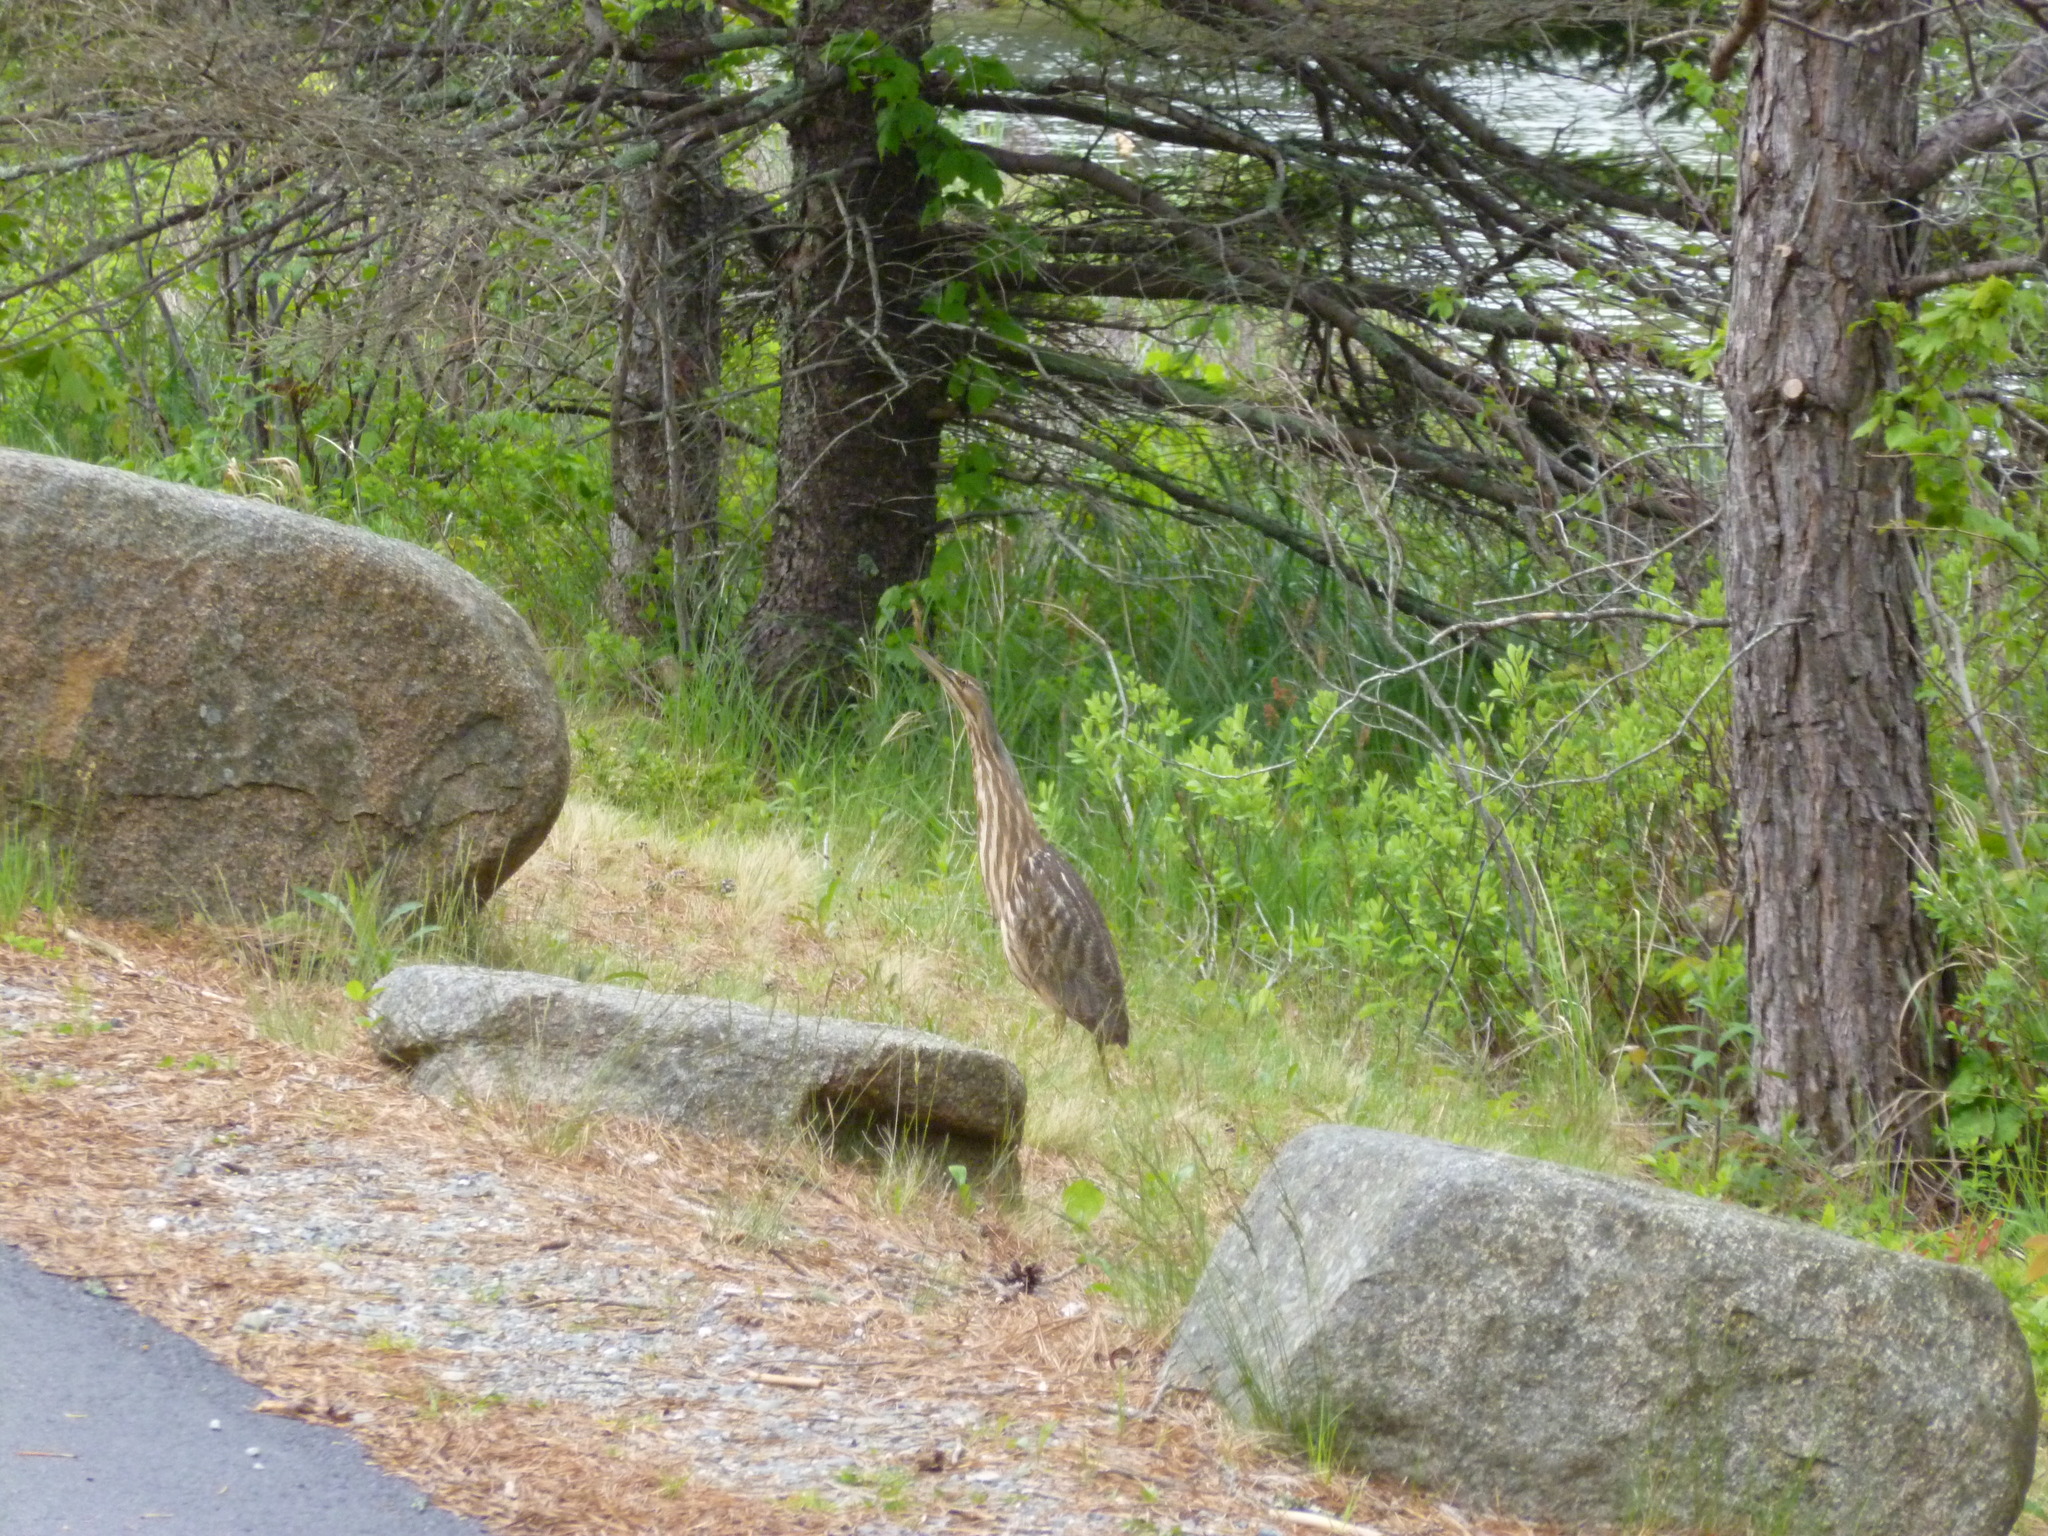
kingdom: Animalia
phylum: Chordata
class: Aves
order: Pelecaniformes
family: Ardeidae
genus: Botaurus
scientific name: Botaurus lentiginosus
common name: American bittern
